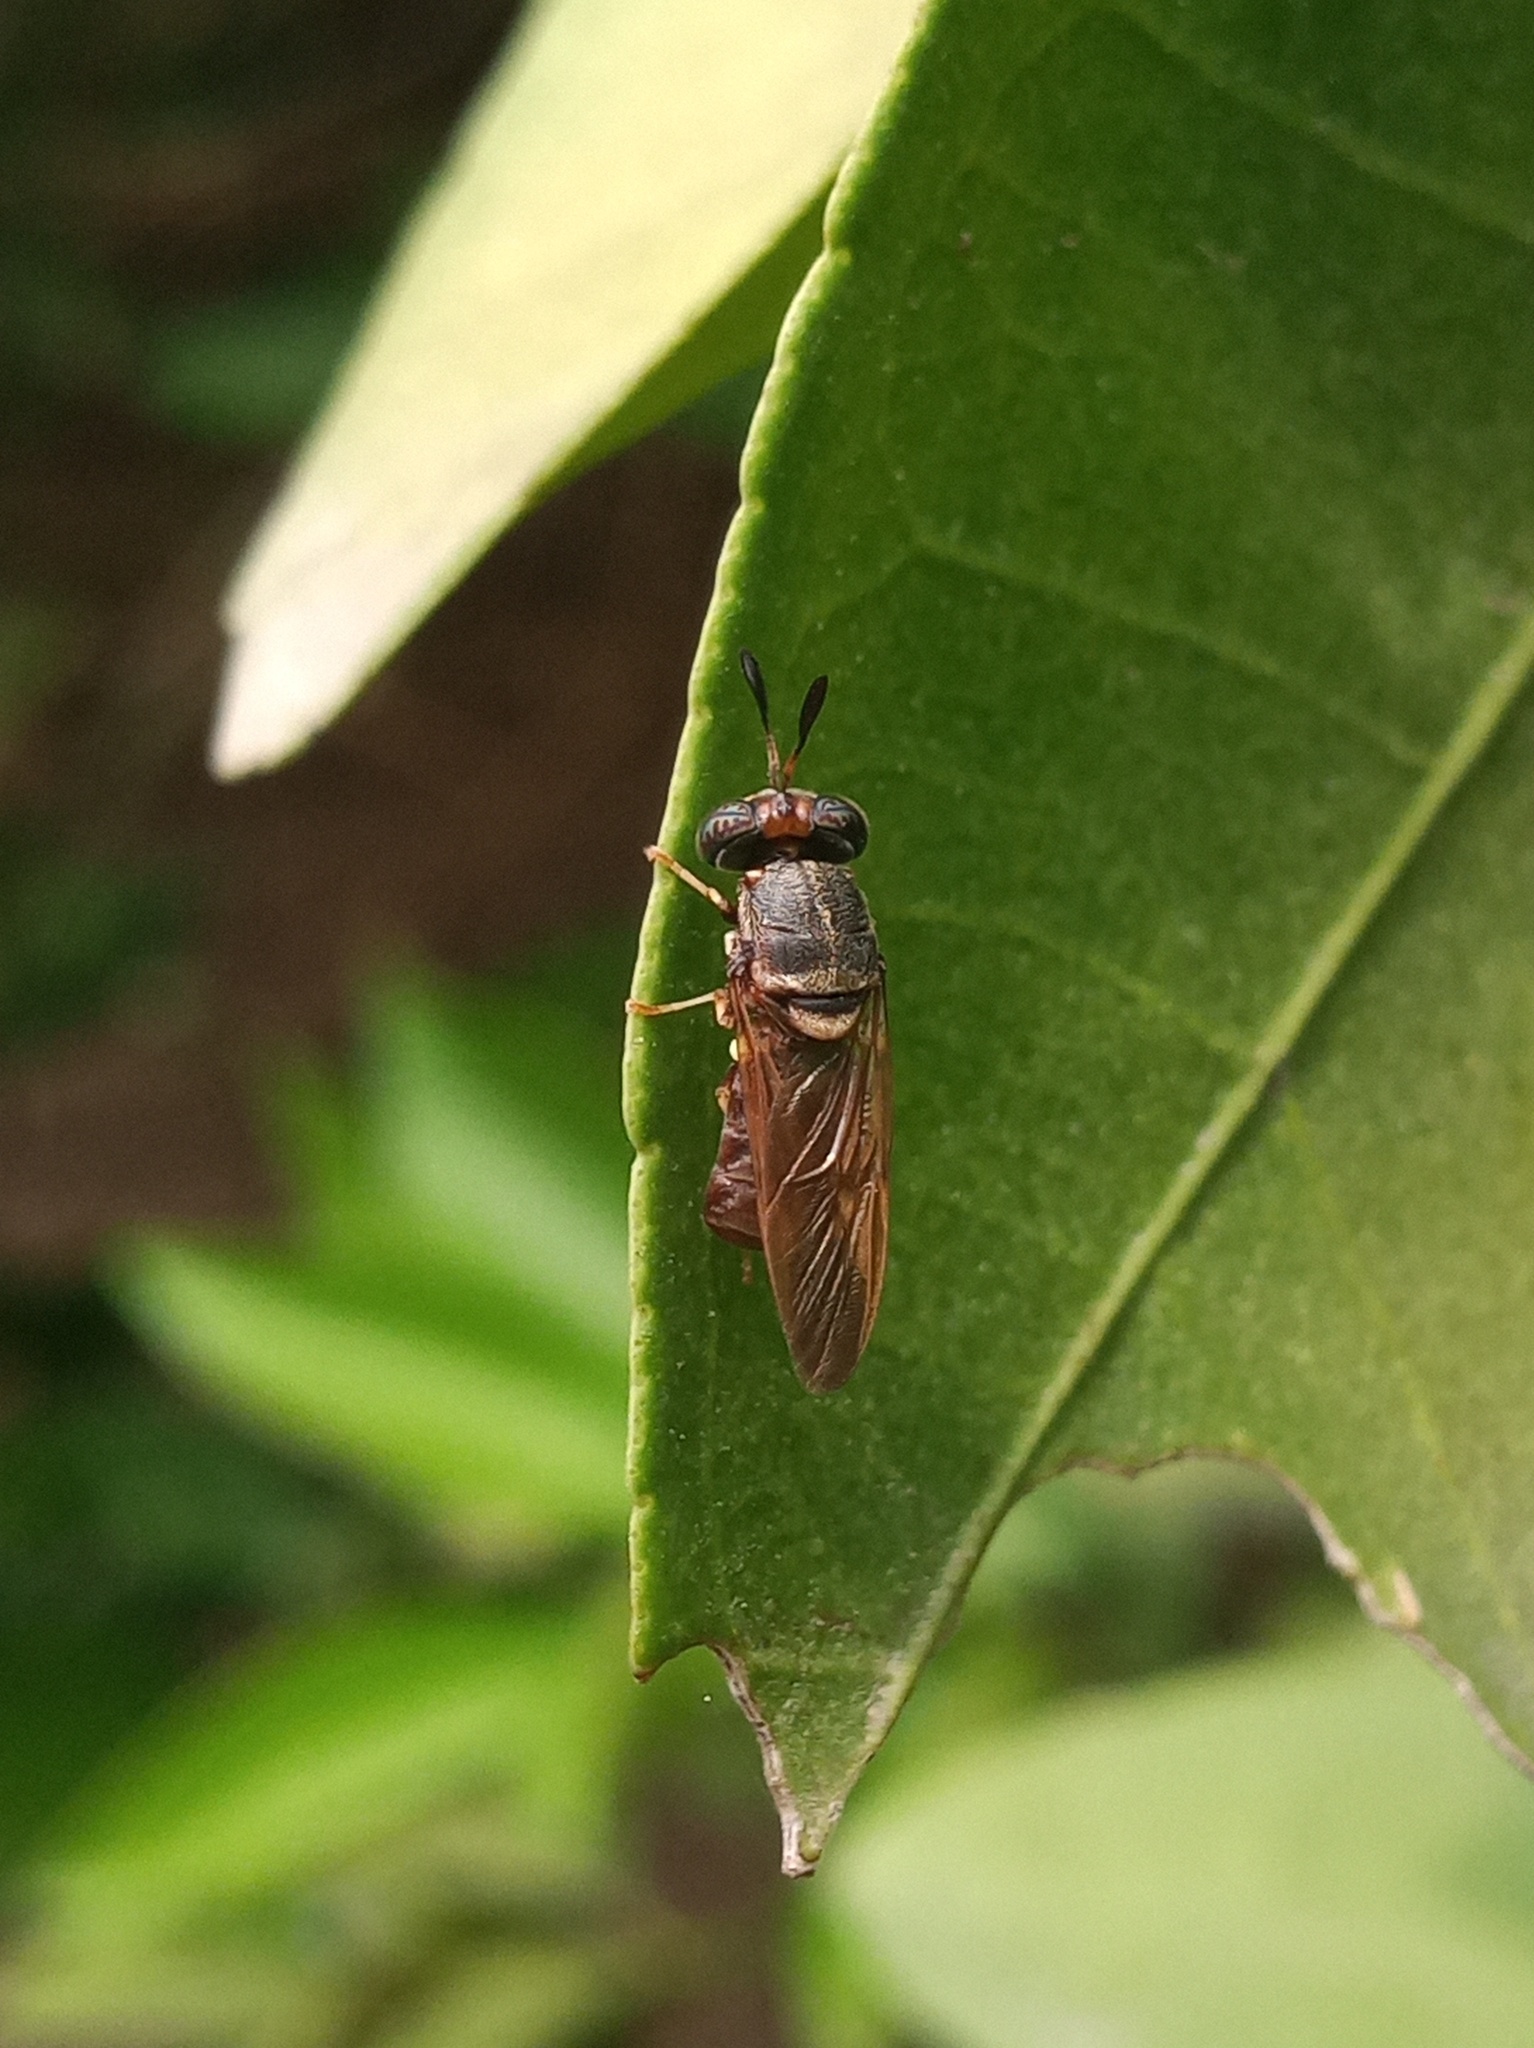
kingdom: Animalia
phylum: Arthropoda
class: Insecta
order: Diptera
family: Stratiomyidae
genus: Hermetia
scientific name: Hermetia chrysopila
